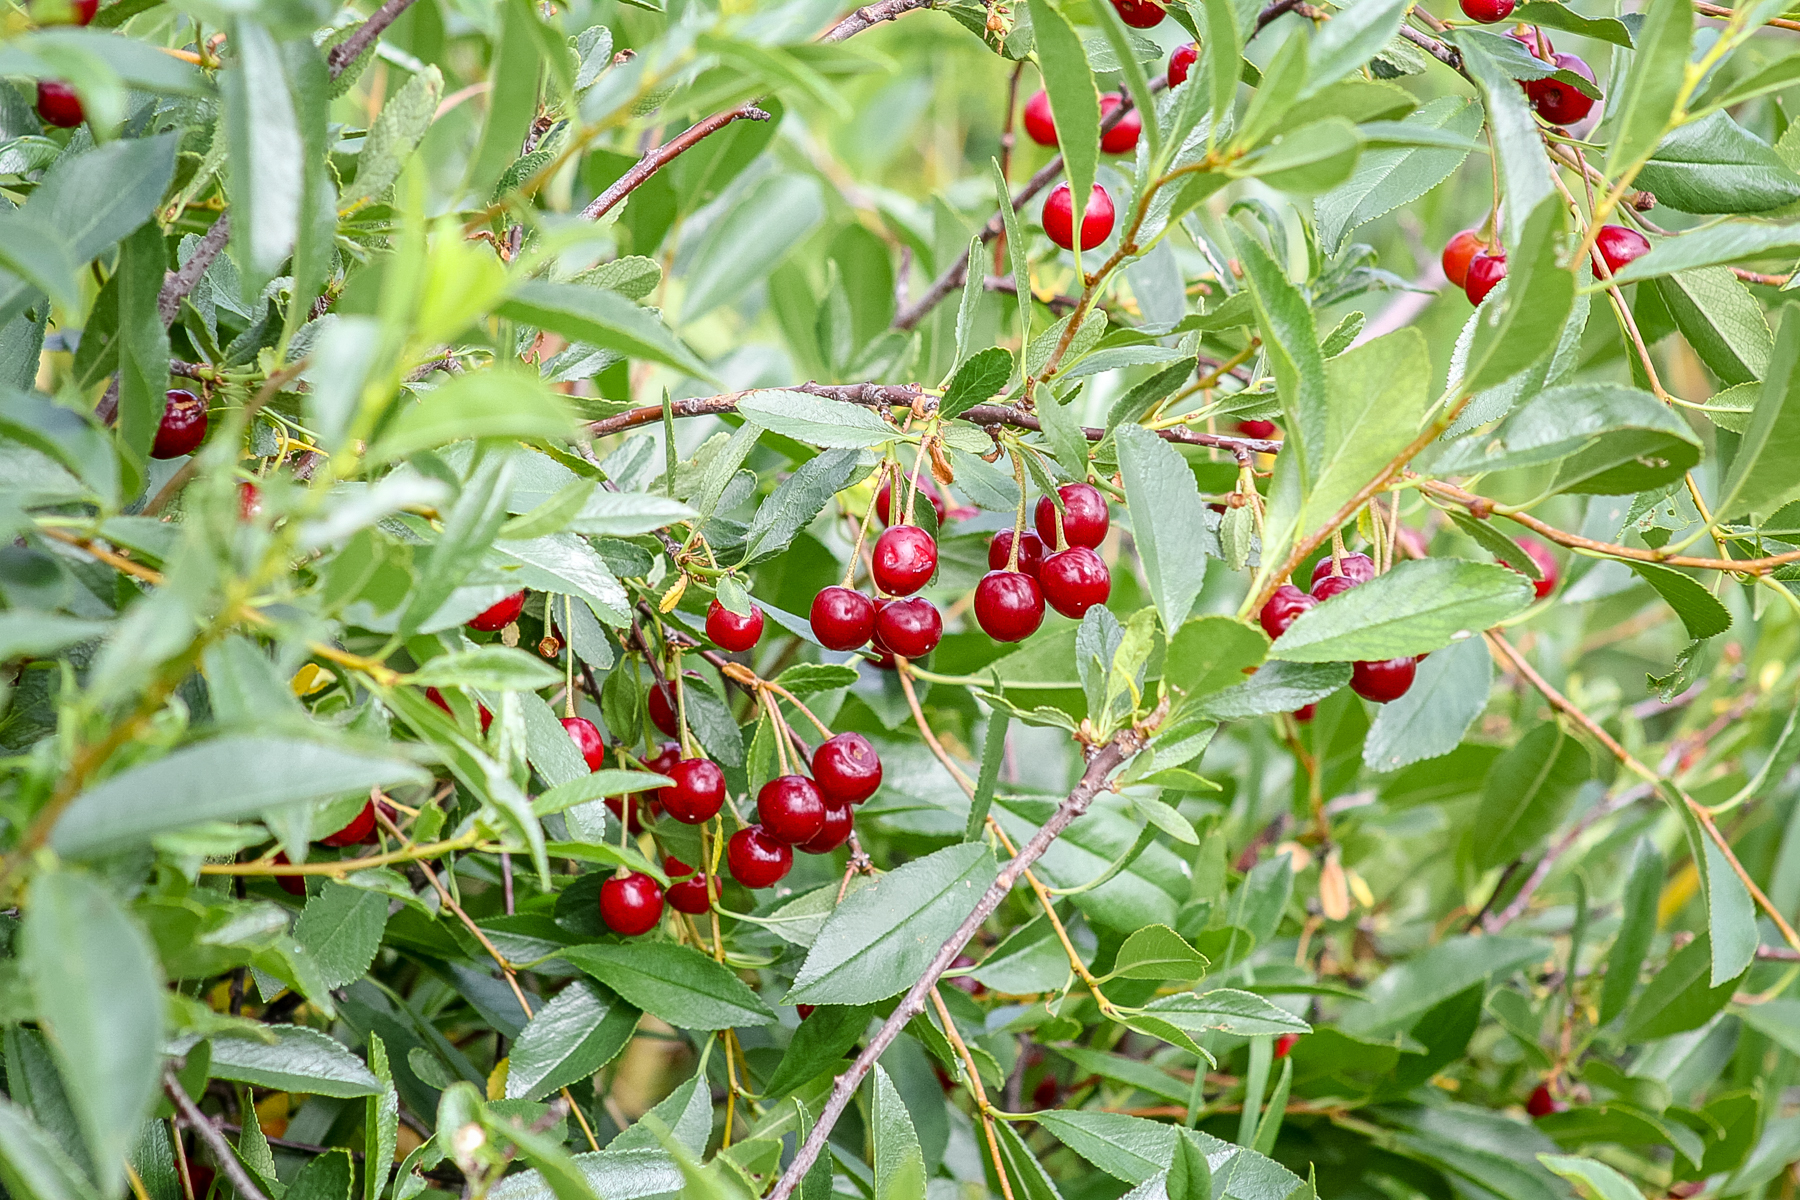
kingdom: Plantae
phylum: Tracheophyta
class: Magnoliopsida
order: Rosales
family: Rosaceae
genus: Prunus
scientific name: Prunus fruticosa
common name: European dwarf cherry
